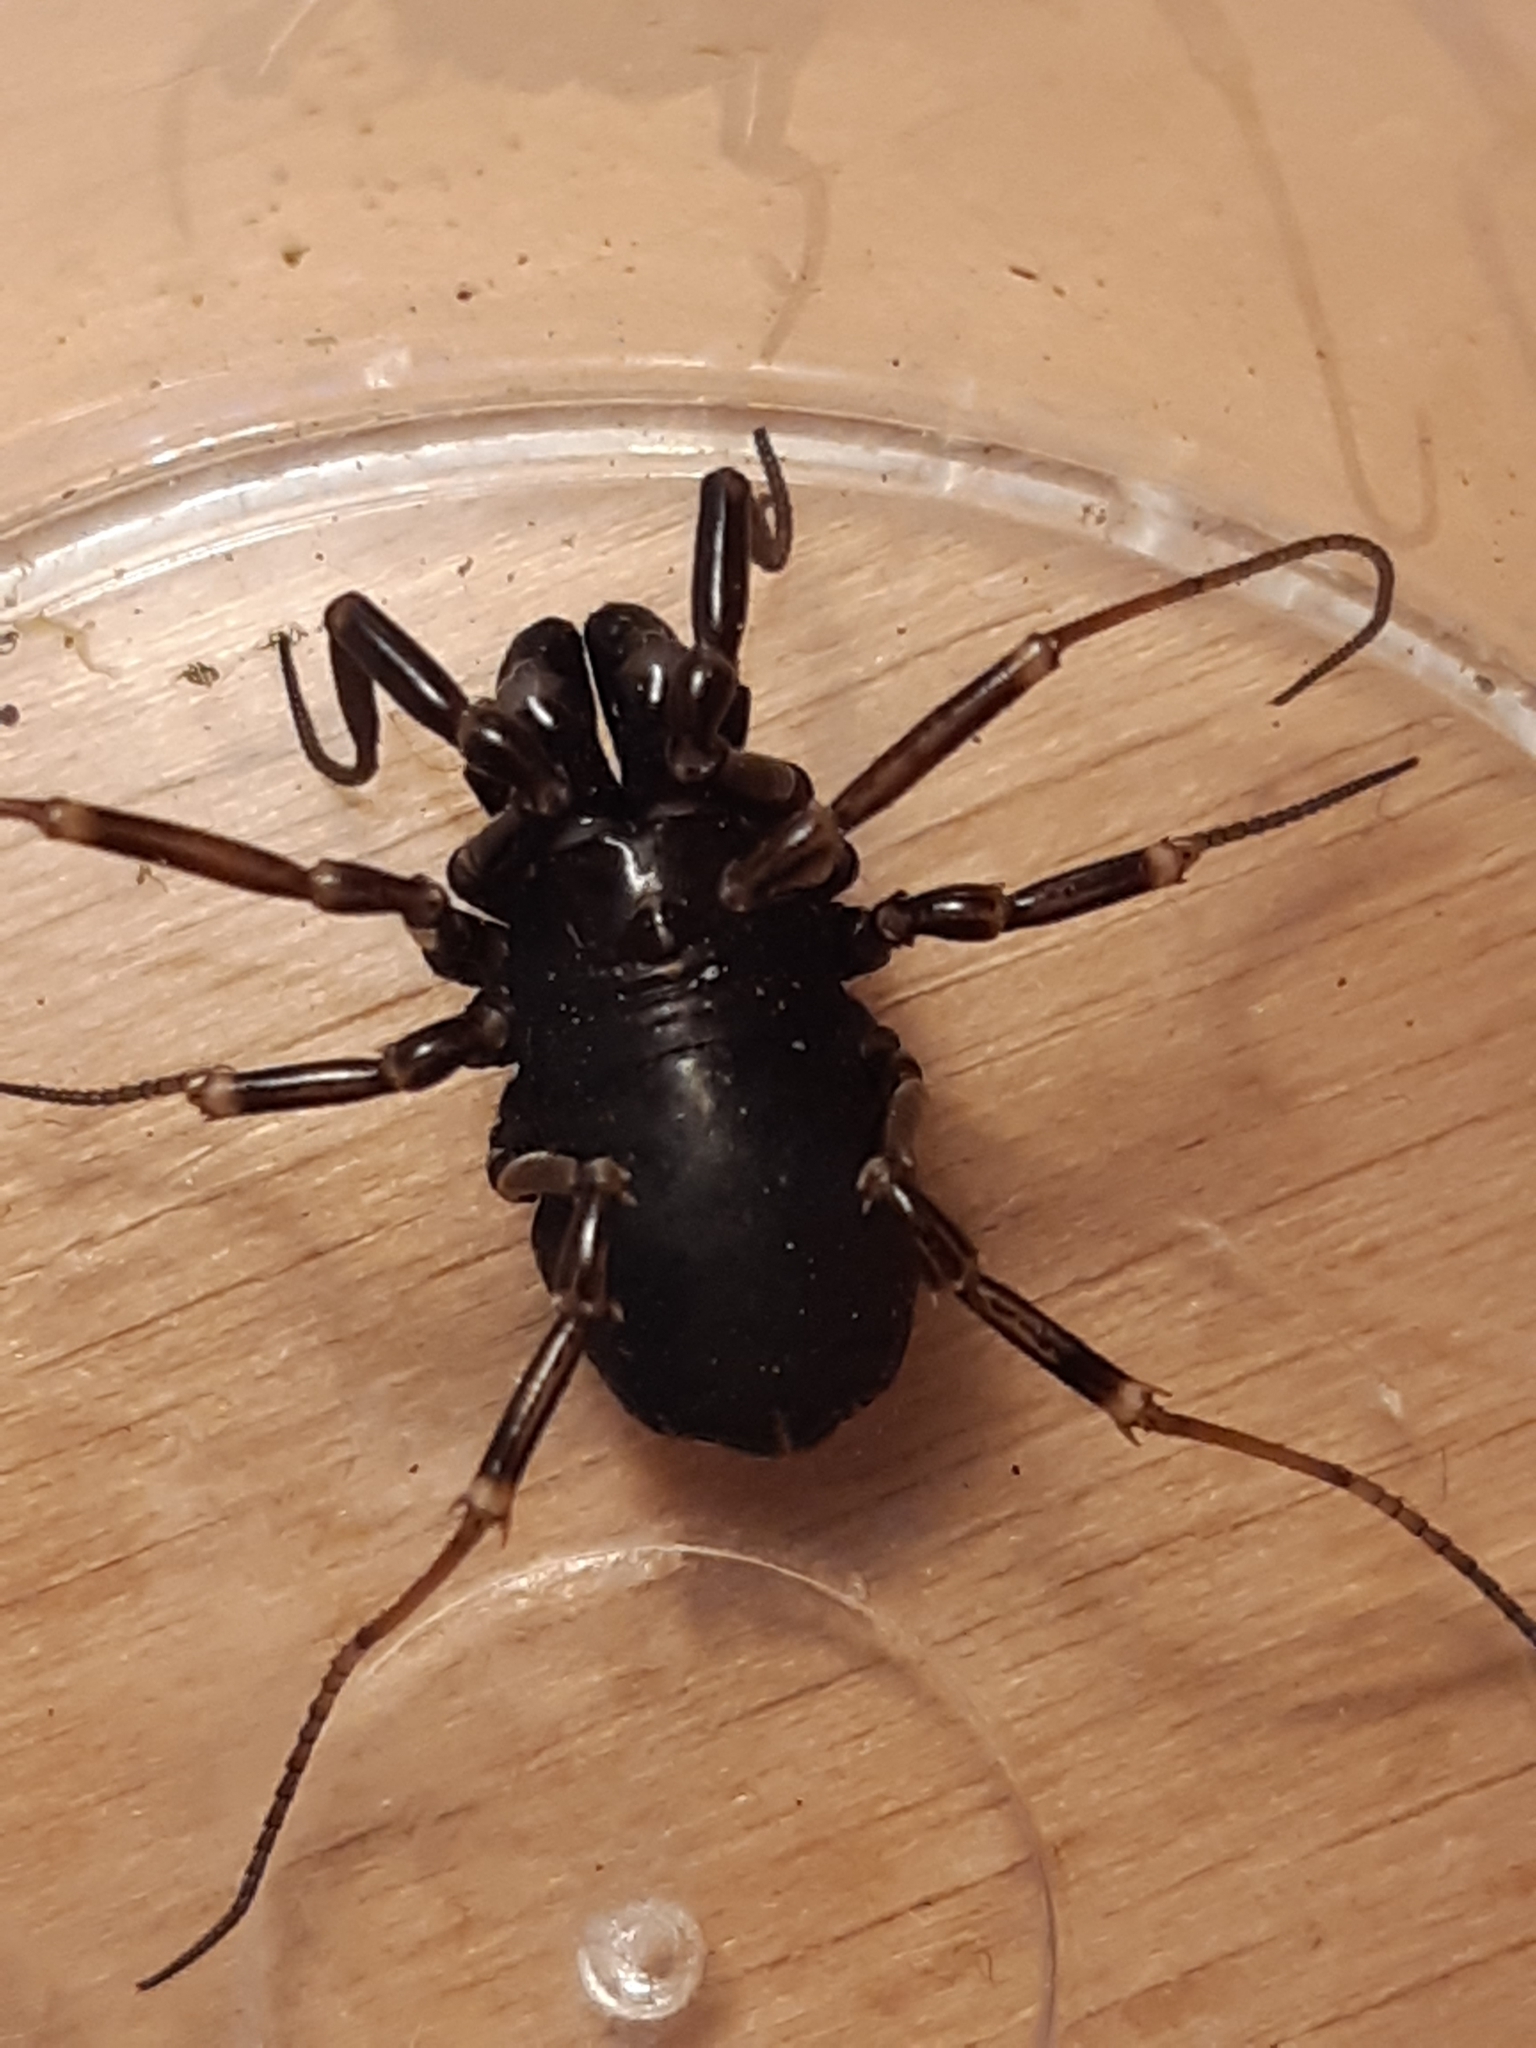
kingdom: Animalia
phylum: Arthropoda
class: Arachnida
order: Opiliones
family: Phalangiidae
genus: Egaenus
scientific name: Egaenus convexus
